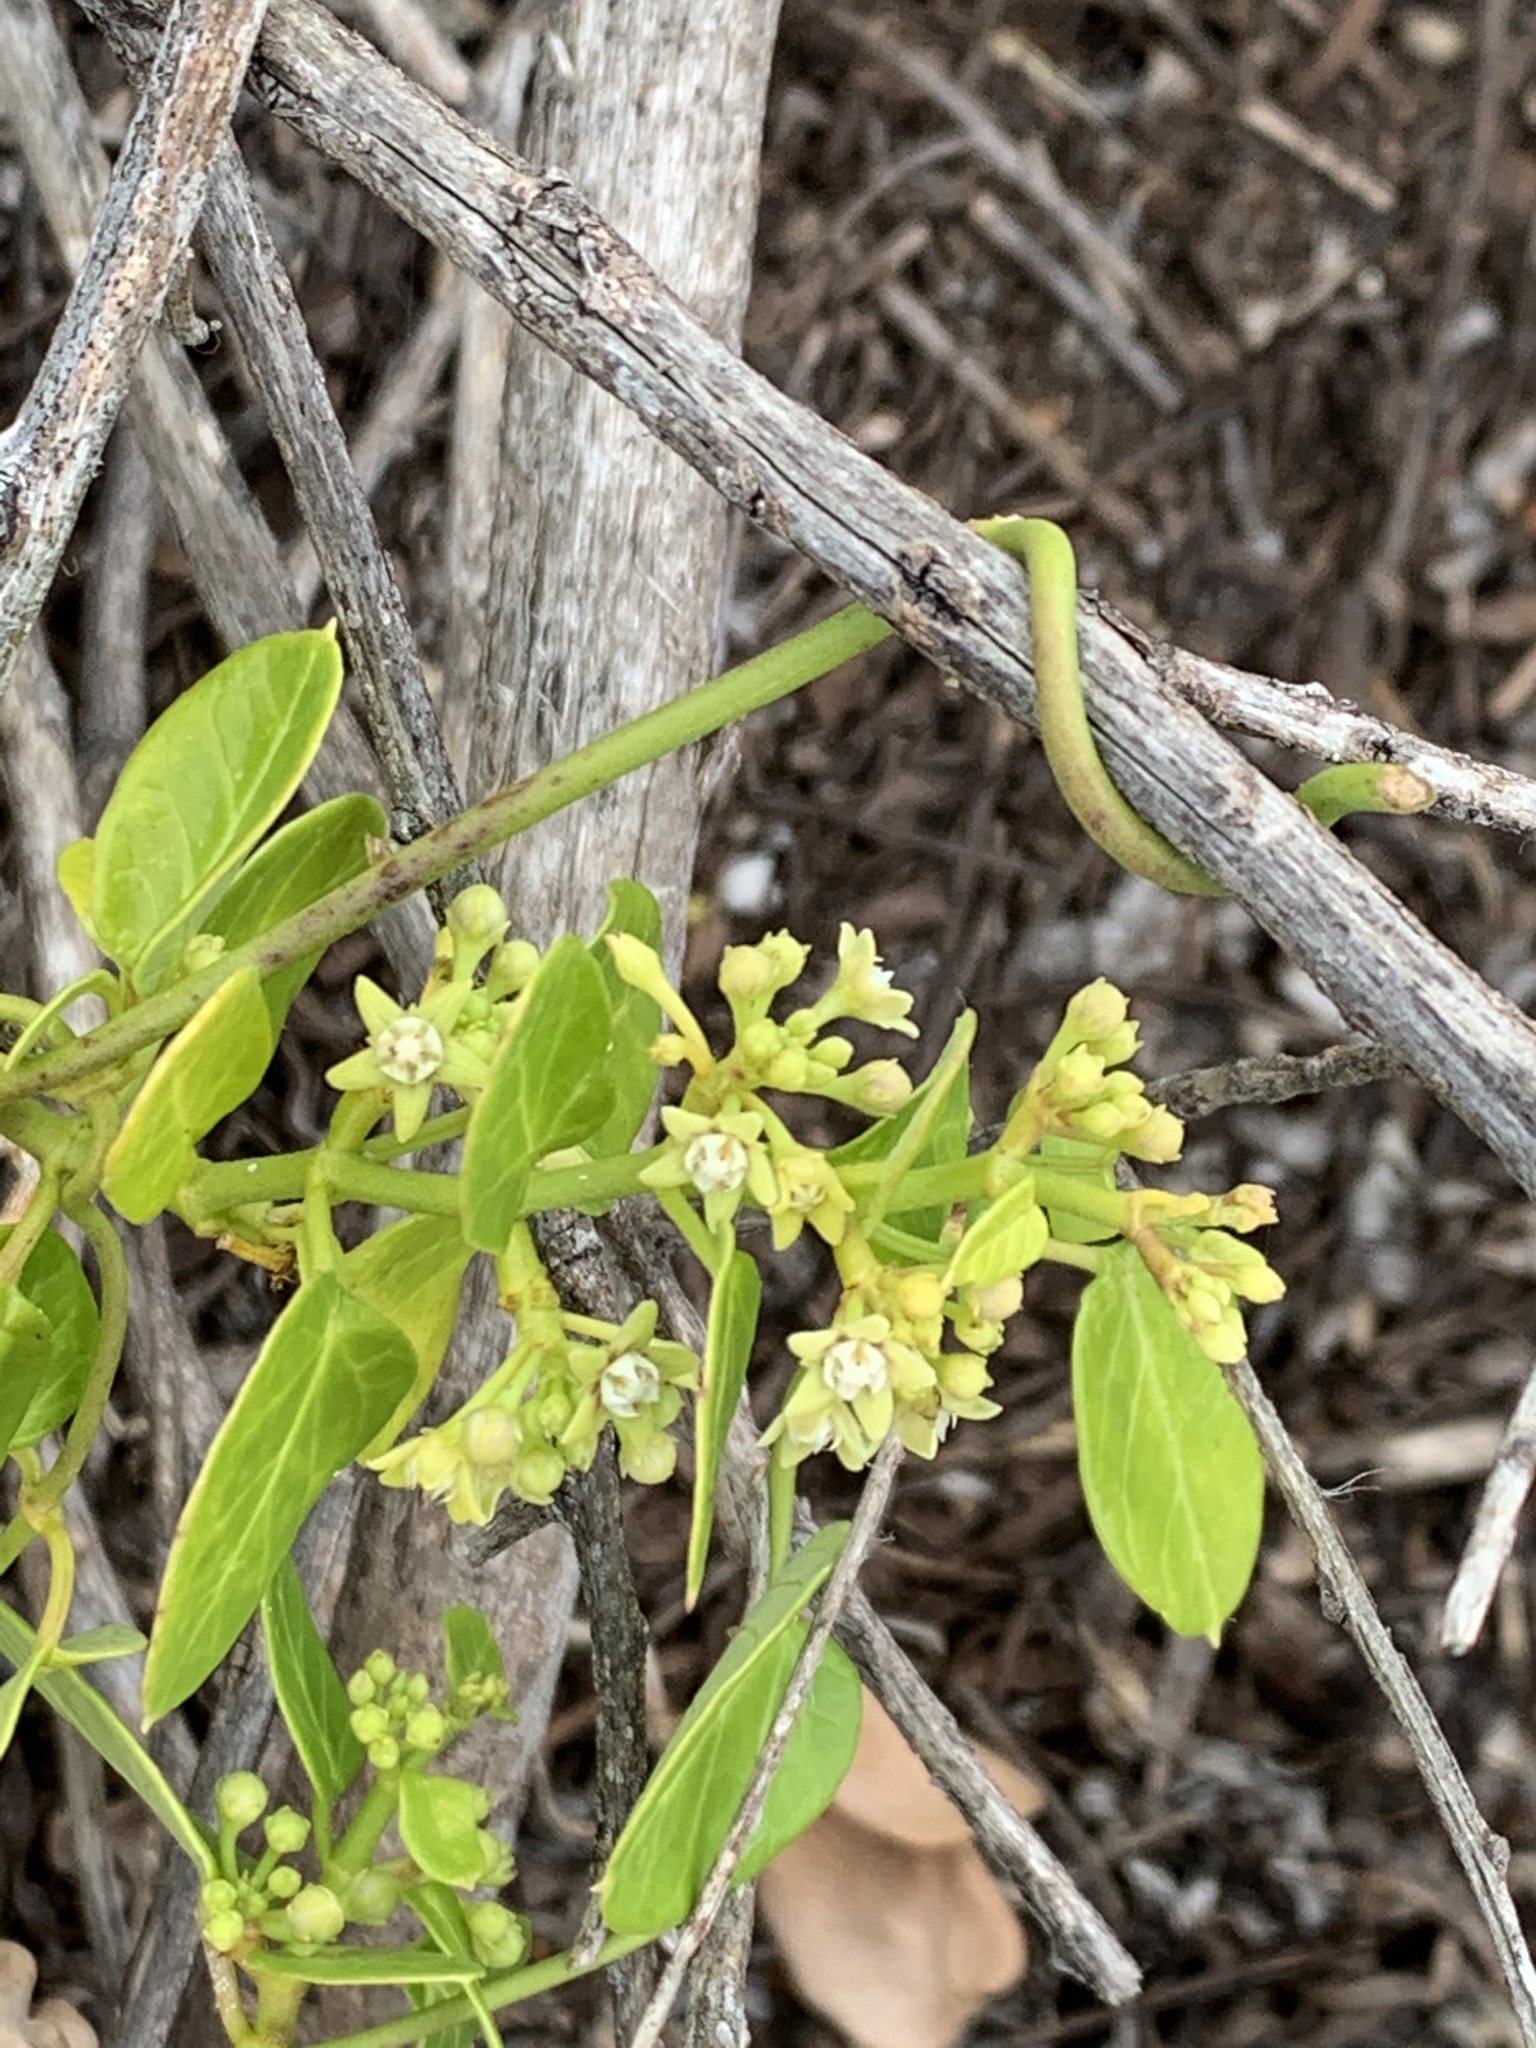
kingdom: Plantae
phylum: Tracheophyta
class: Magnoliopsida
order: Gentianales
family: Apocynaceae
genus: Cynanchum
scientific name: Cynanchum obtusifolium
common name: Monkey-rope
